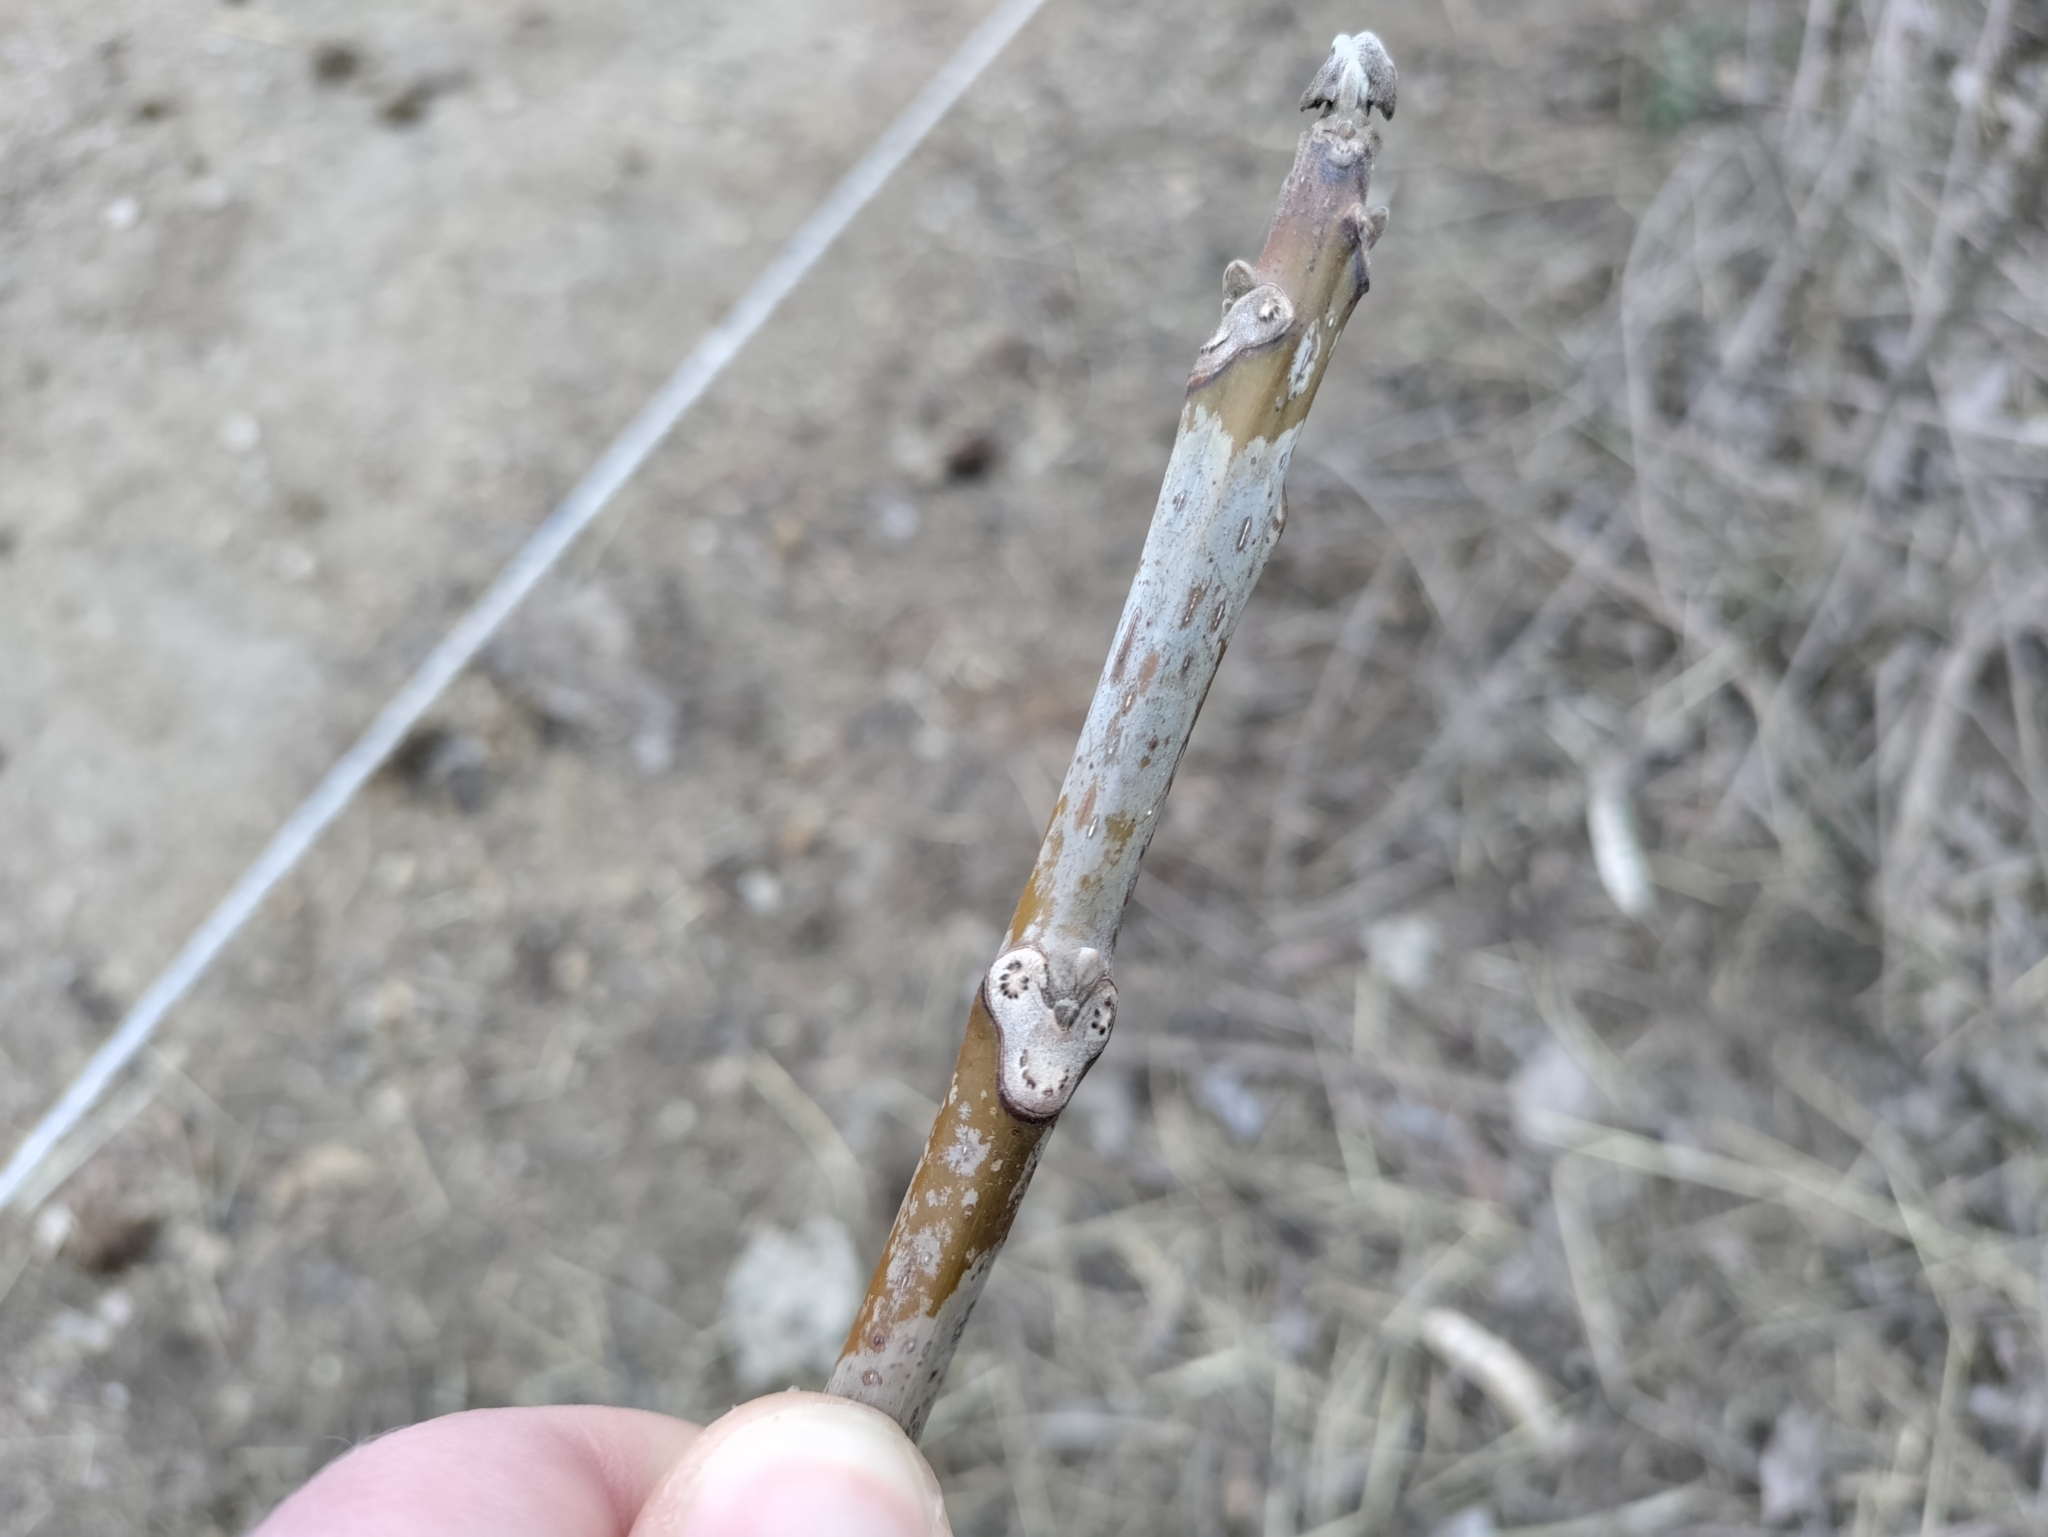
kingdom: Plantae
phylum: Tracheophyta
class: Magnoliopsida
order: Fagales
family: Juglandaceae
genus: Juglans
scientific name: Juglans regia
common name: Walnut
